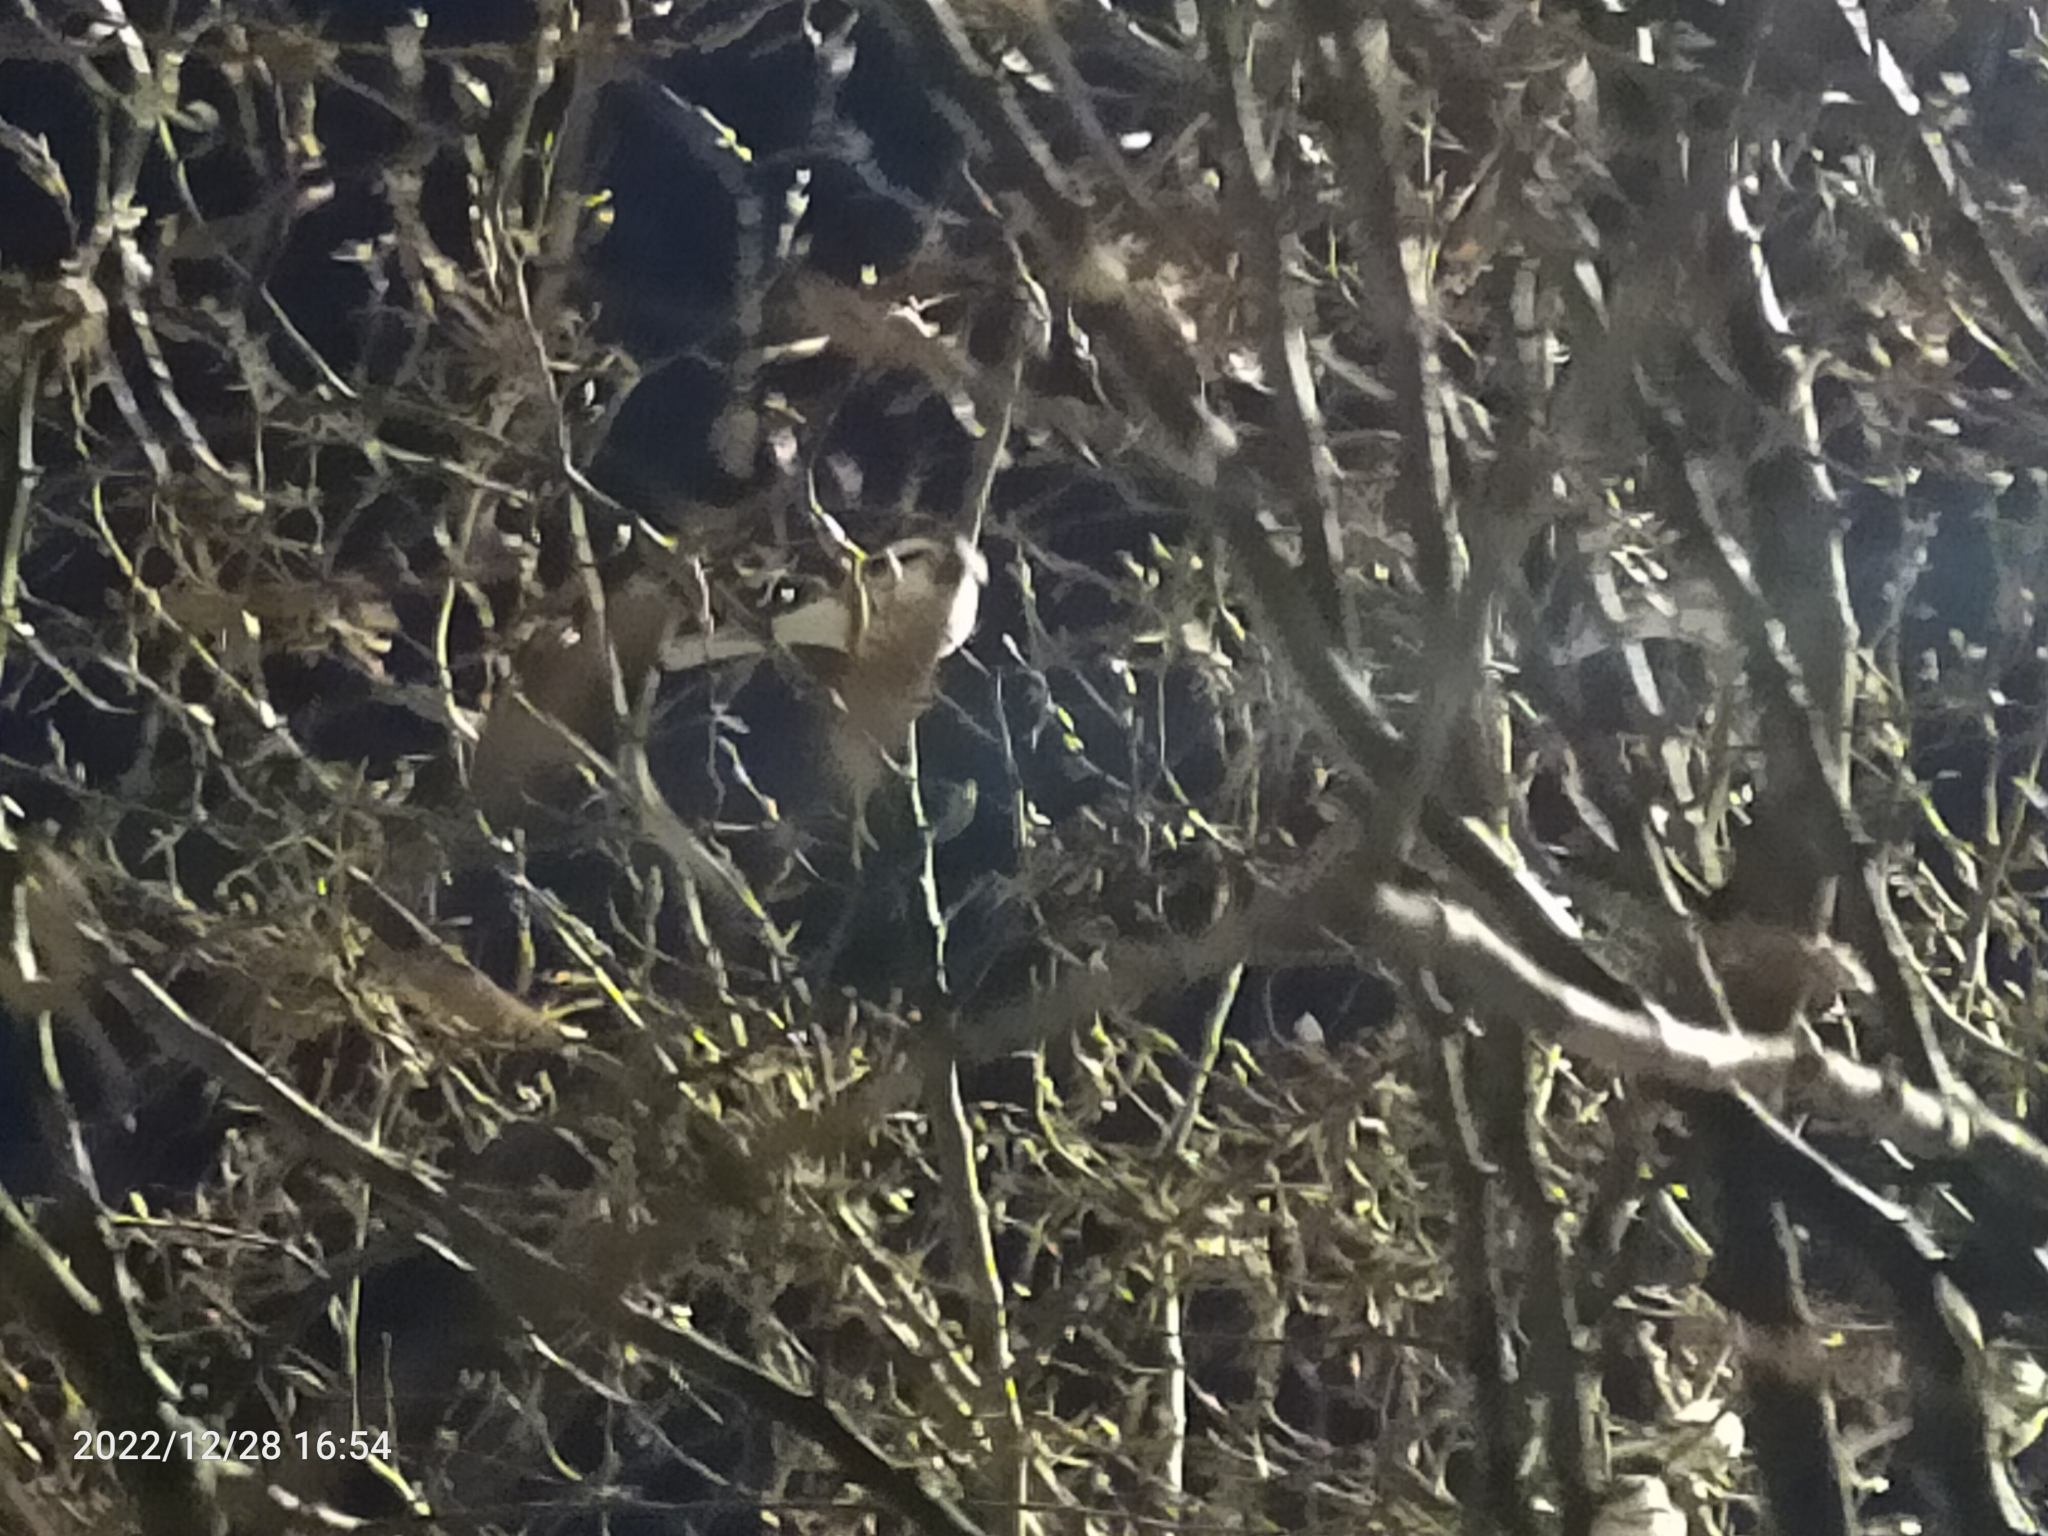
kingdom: Animalia
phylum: Chordata
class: Aves
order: Passeriformes
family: Aegithalidae
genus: Aegithalos
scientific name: Aegithalos caudatus
